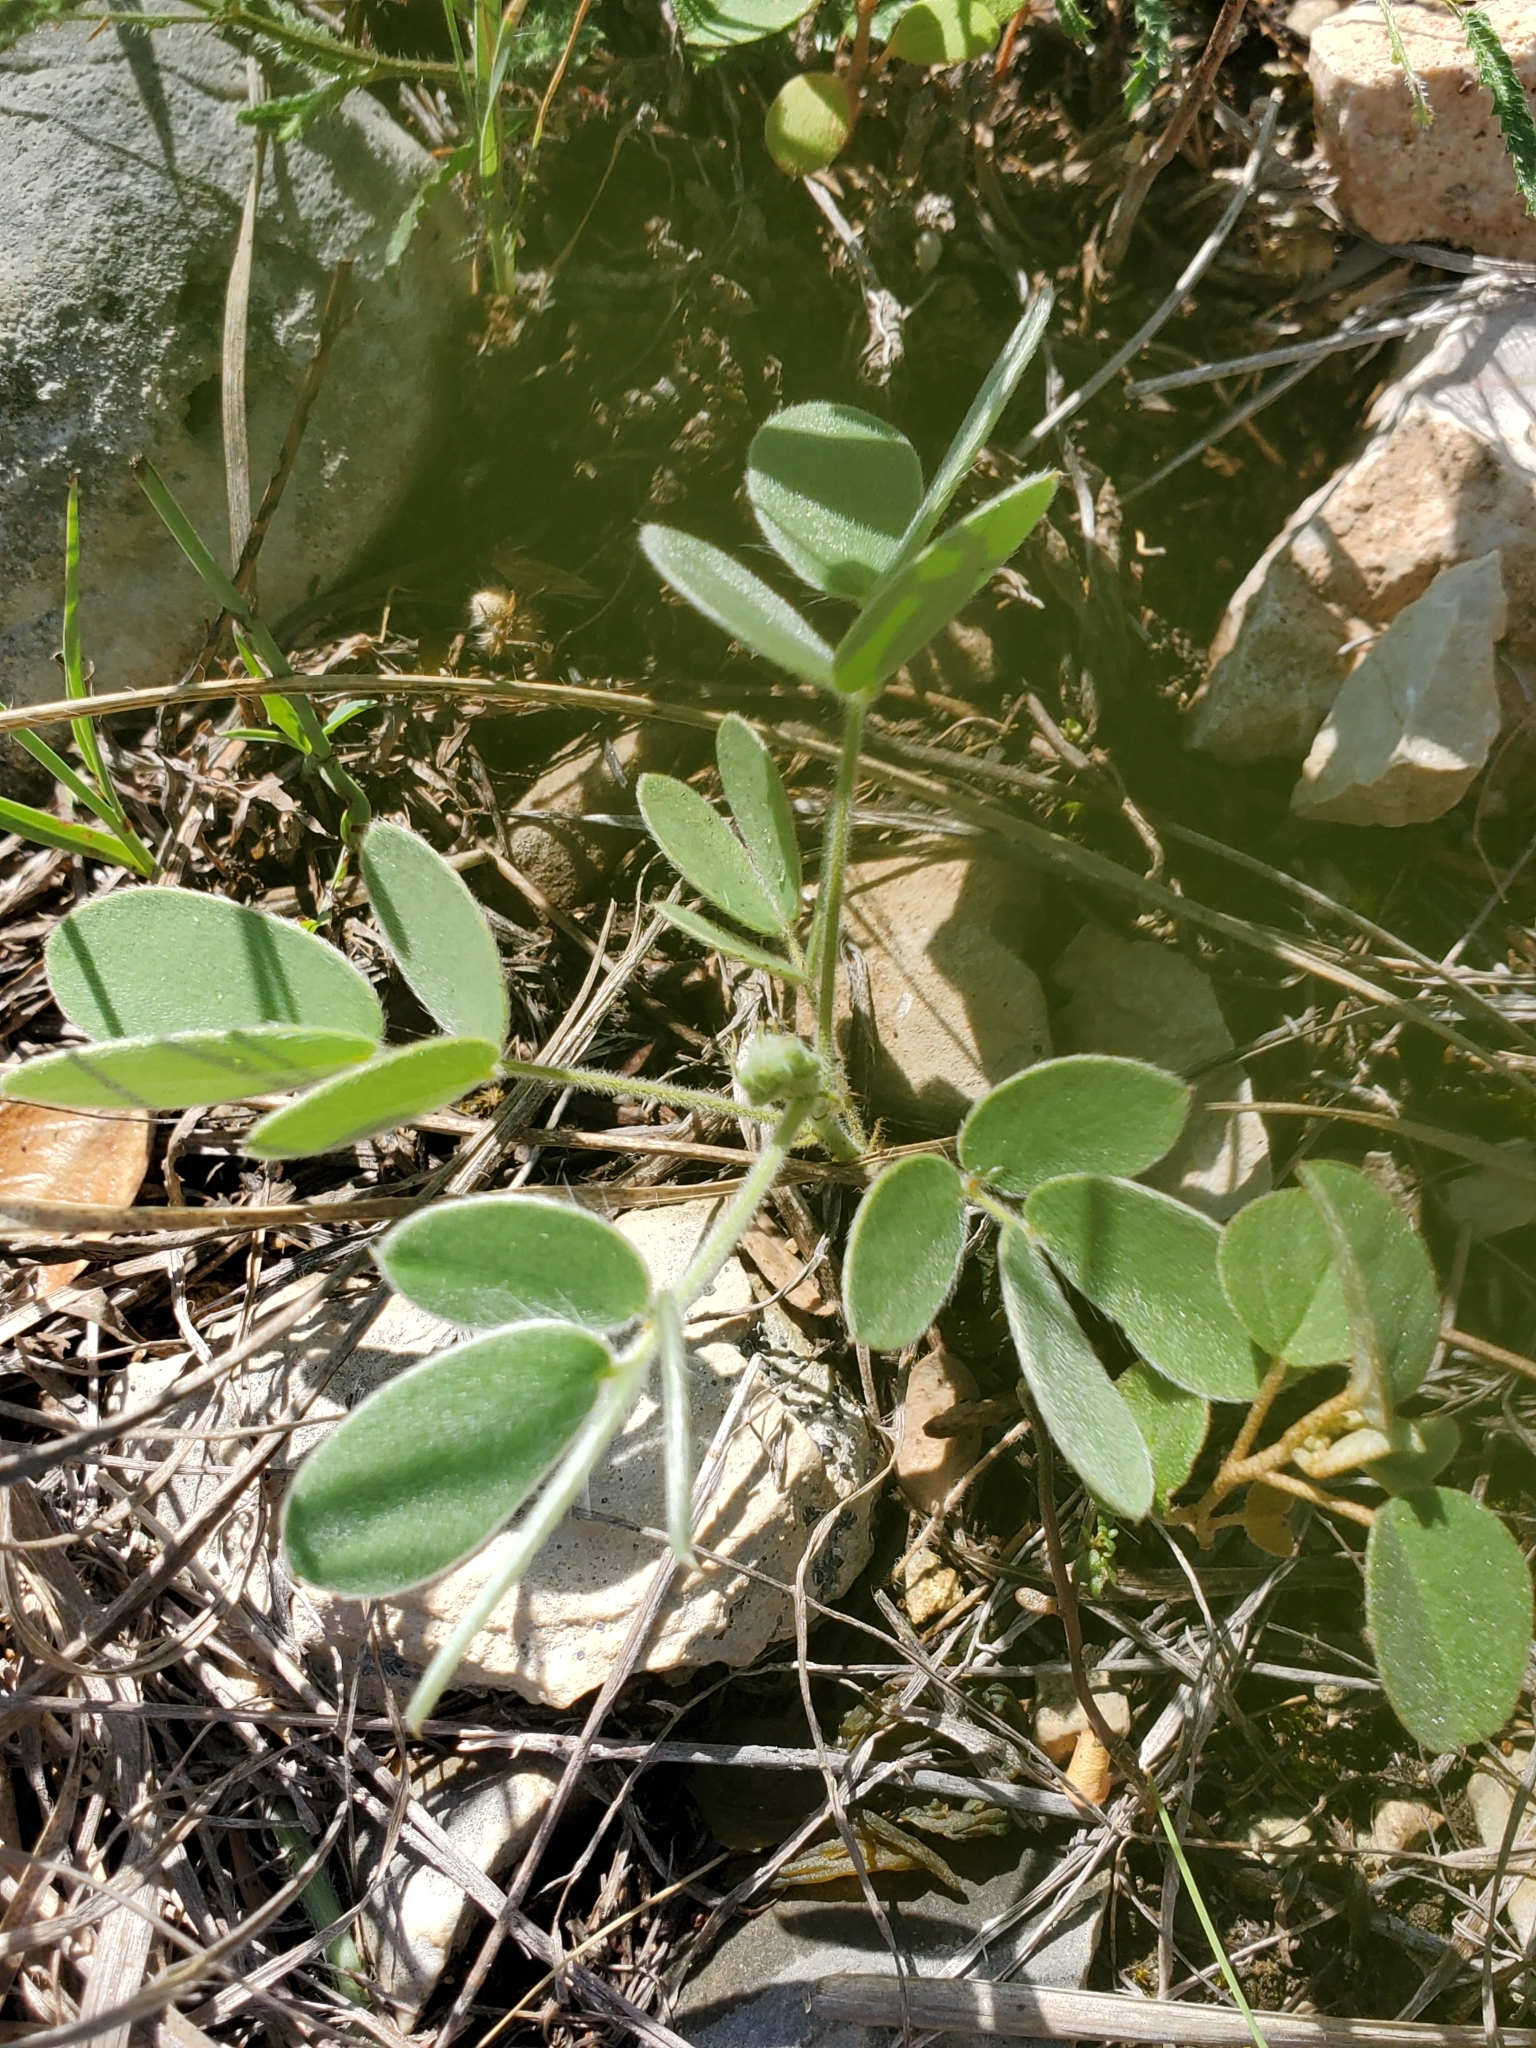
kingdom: Plantae
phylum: Tracheophyta
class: Magnoliopsida
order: Fabales
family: Fabaceae
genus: Senna
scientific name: Senna lindheimeriana
